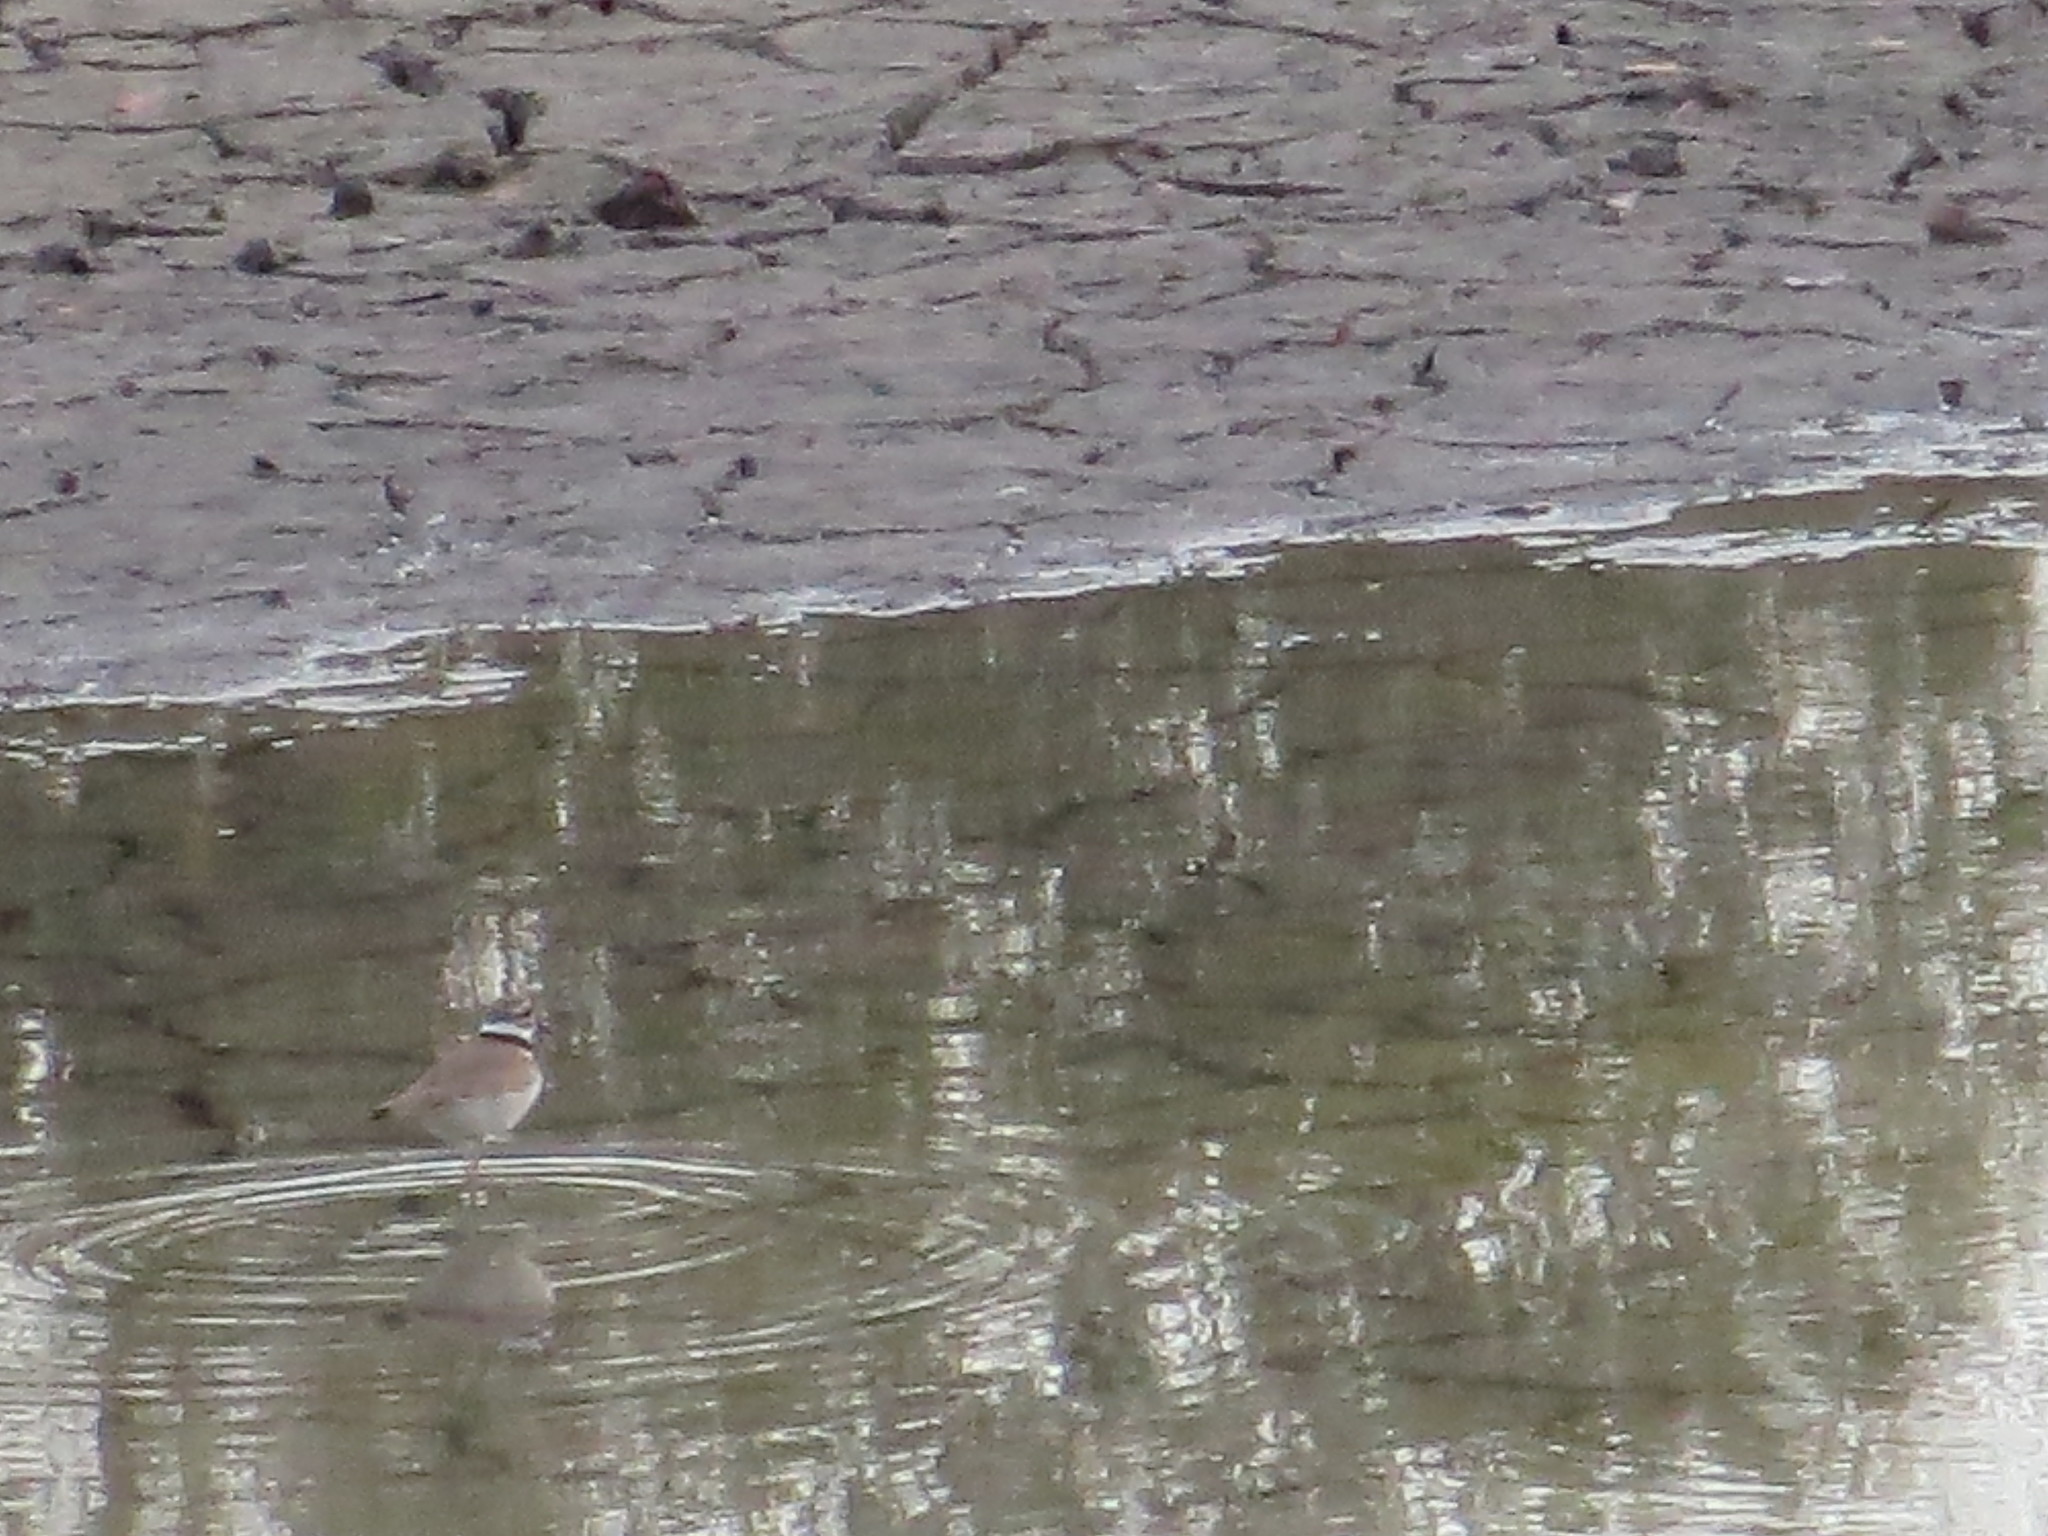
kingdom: Animalia
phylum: Chordata
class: Aves
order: Charadriiformes
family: Charadriidae
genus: Charadrius
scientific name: Charadrius vociferus
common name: Killdeer
